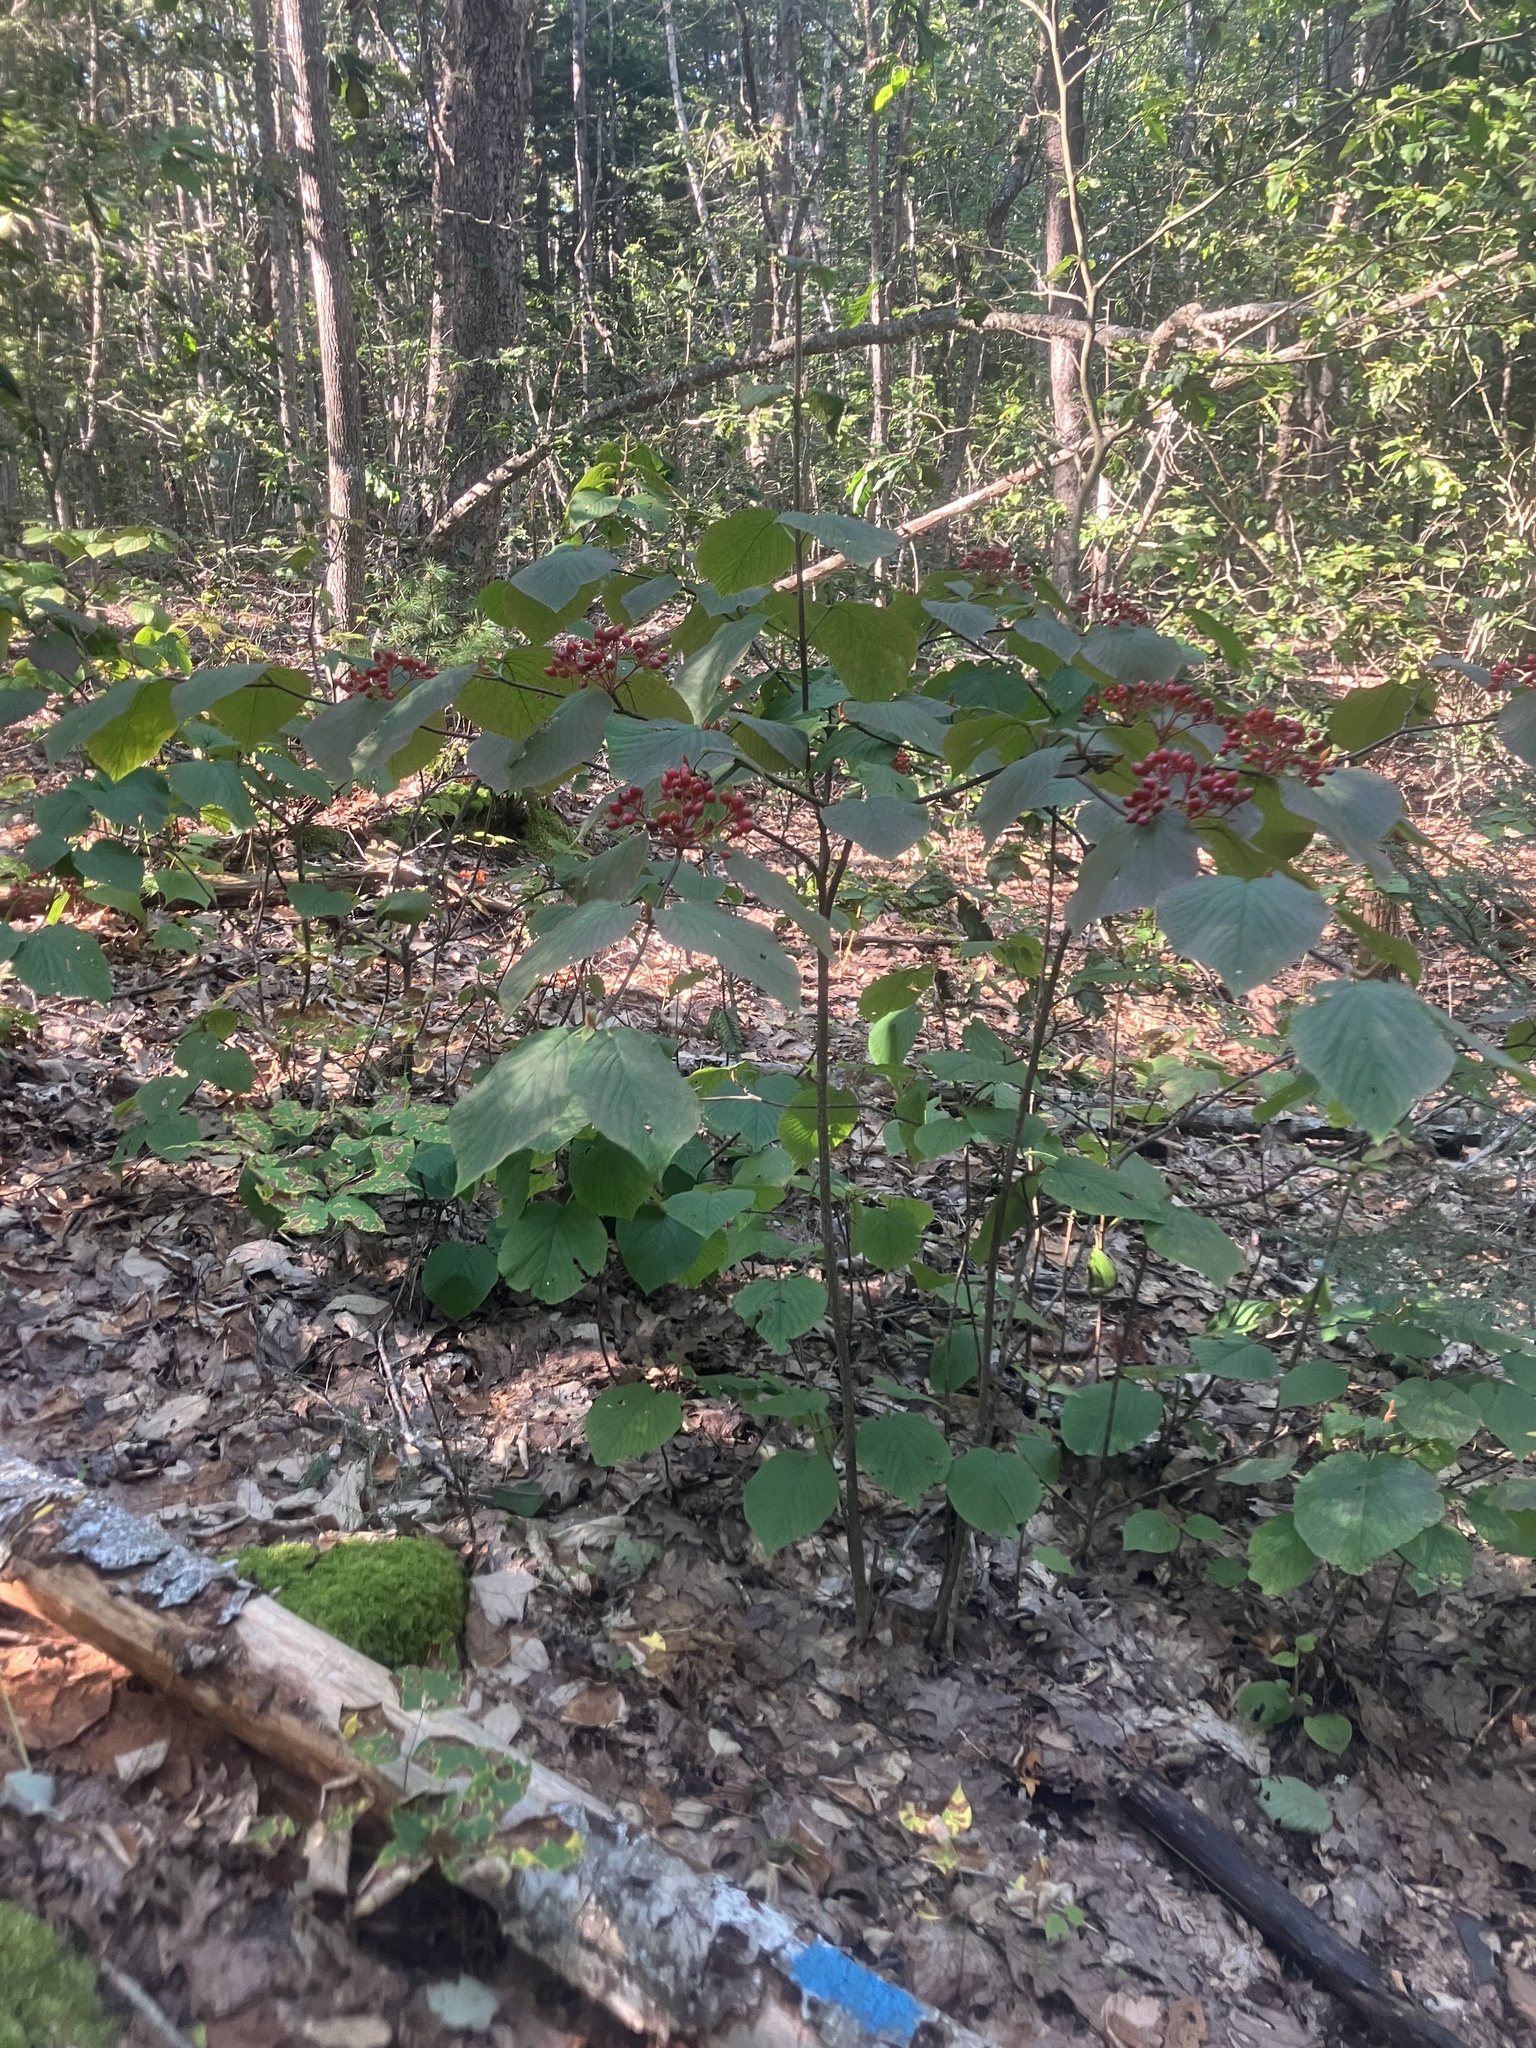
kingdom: Plantae
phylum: Tracheophyta
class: Magnoliopsida
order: Dipsacales
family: Viburnaceae
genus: Viburnum
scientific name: Viburnum lantanoides
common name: Hobblebush
